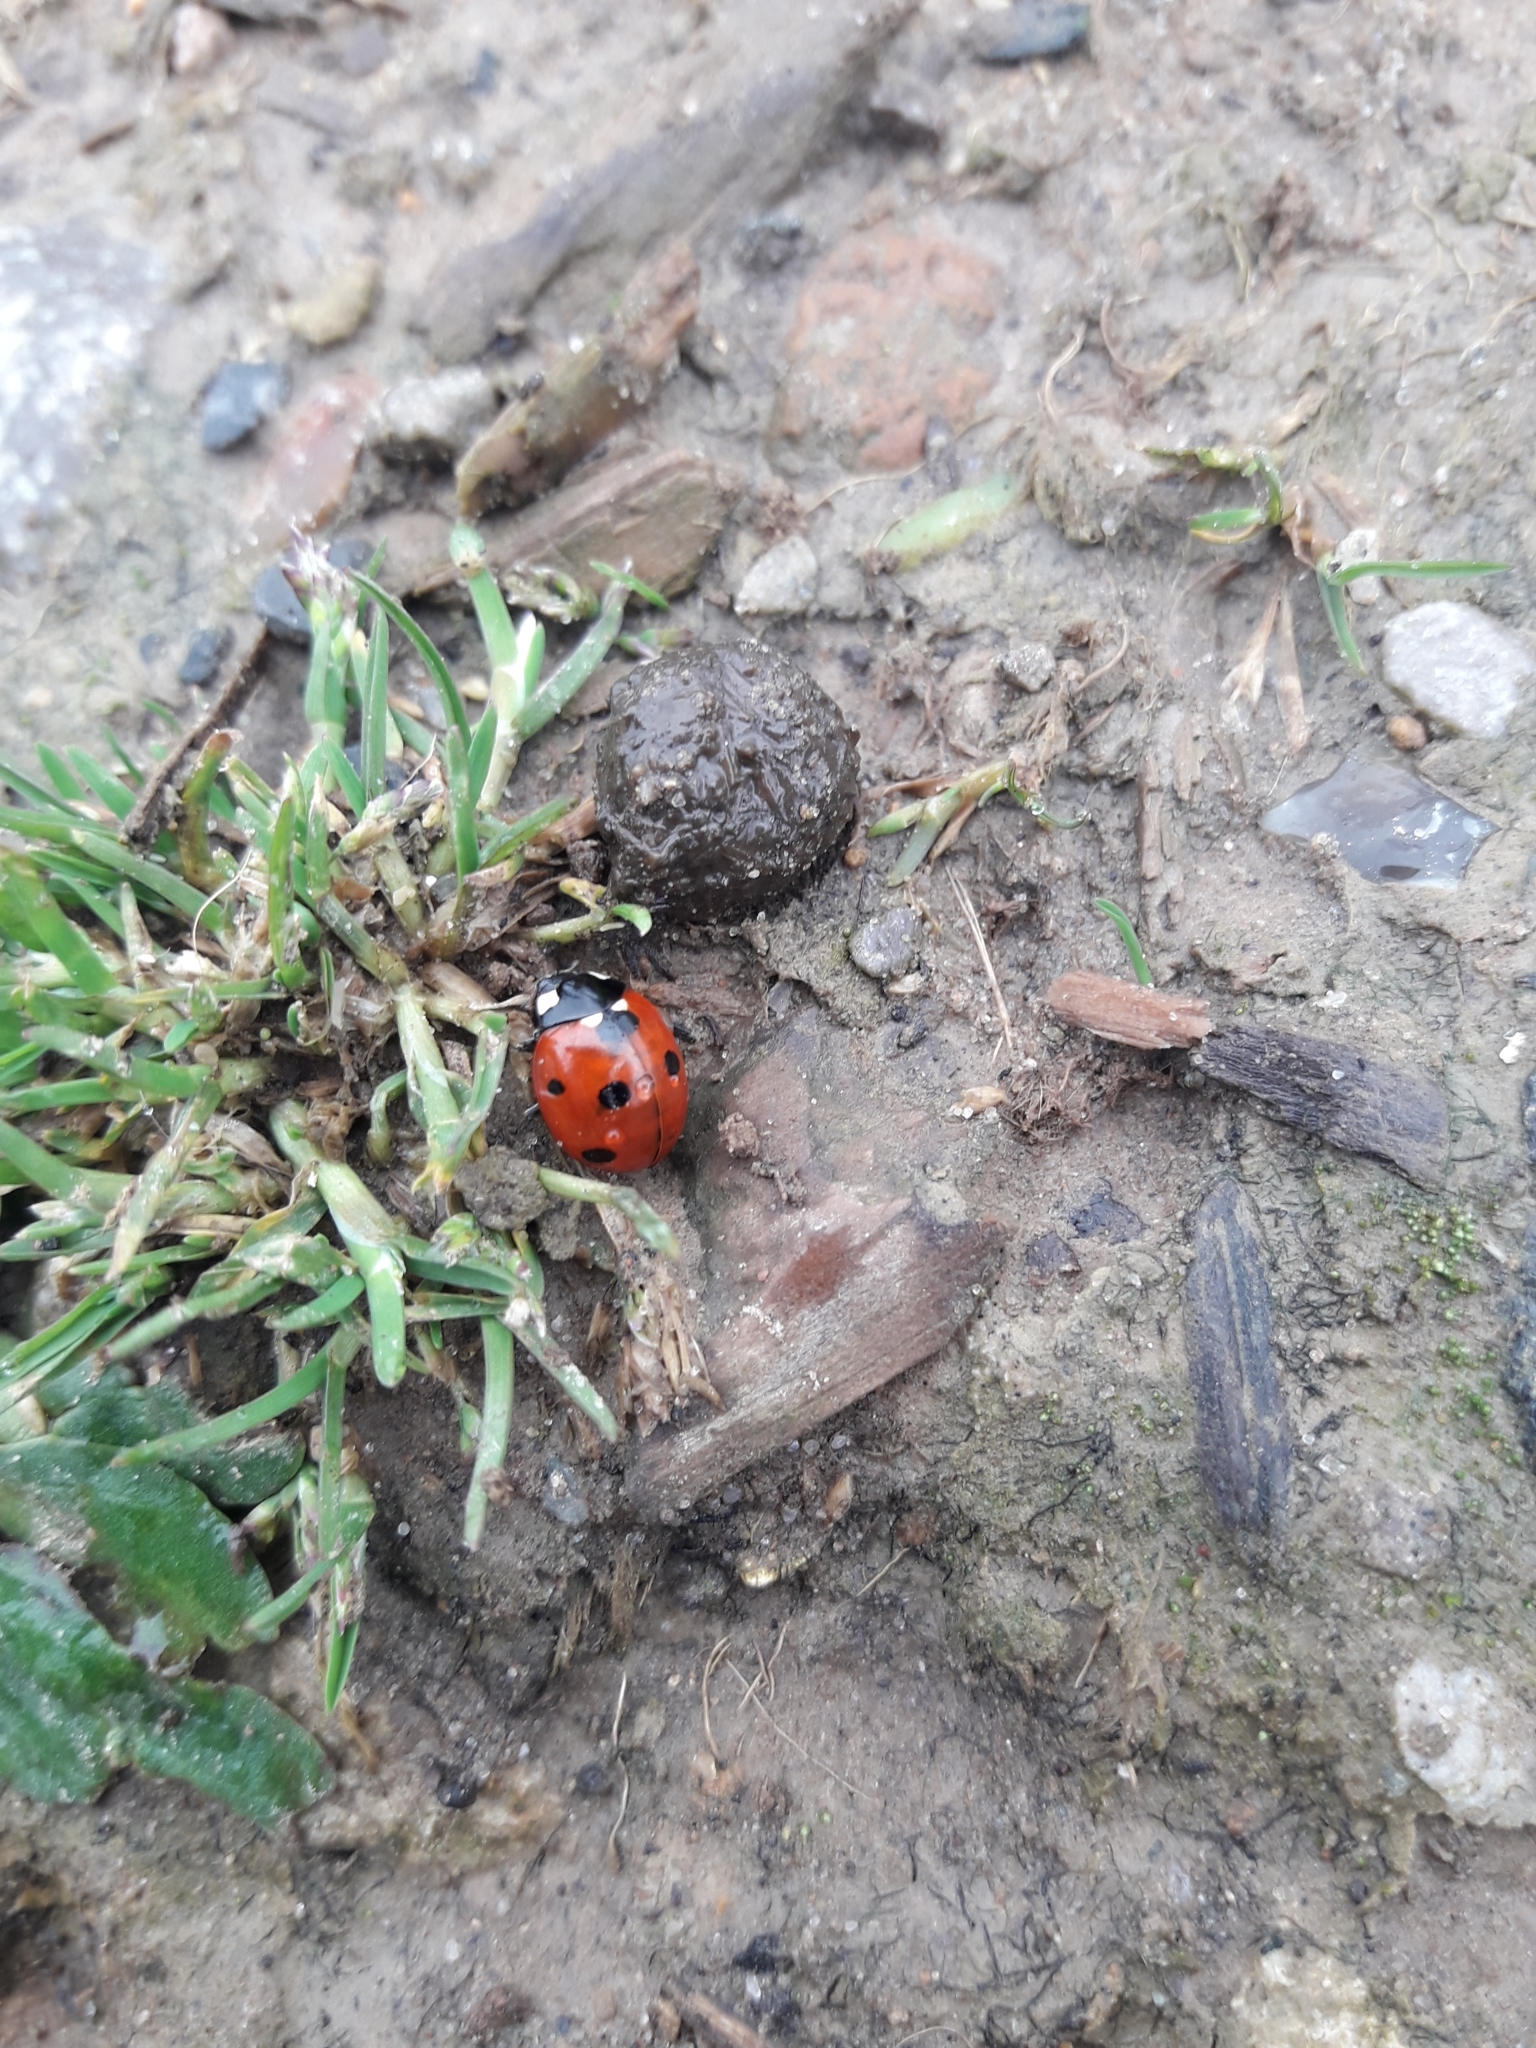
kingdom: Animalia
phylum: Arthropoda
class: Insecta
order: Coleoptera
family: Coccinellidae
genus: Coccinella
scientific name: Coccinella septempunctata
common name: Sevenspotted lady beetle
